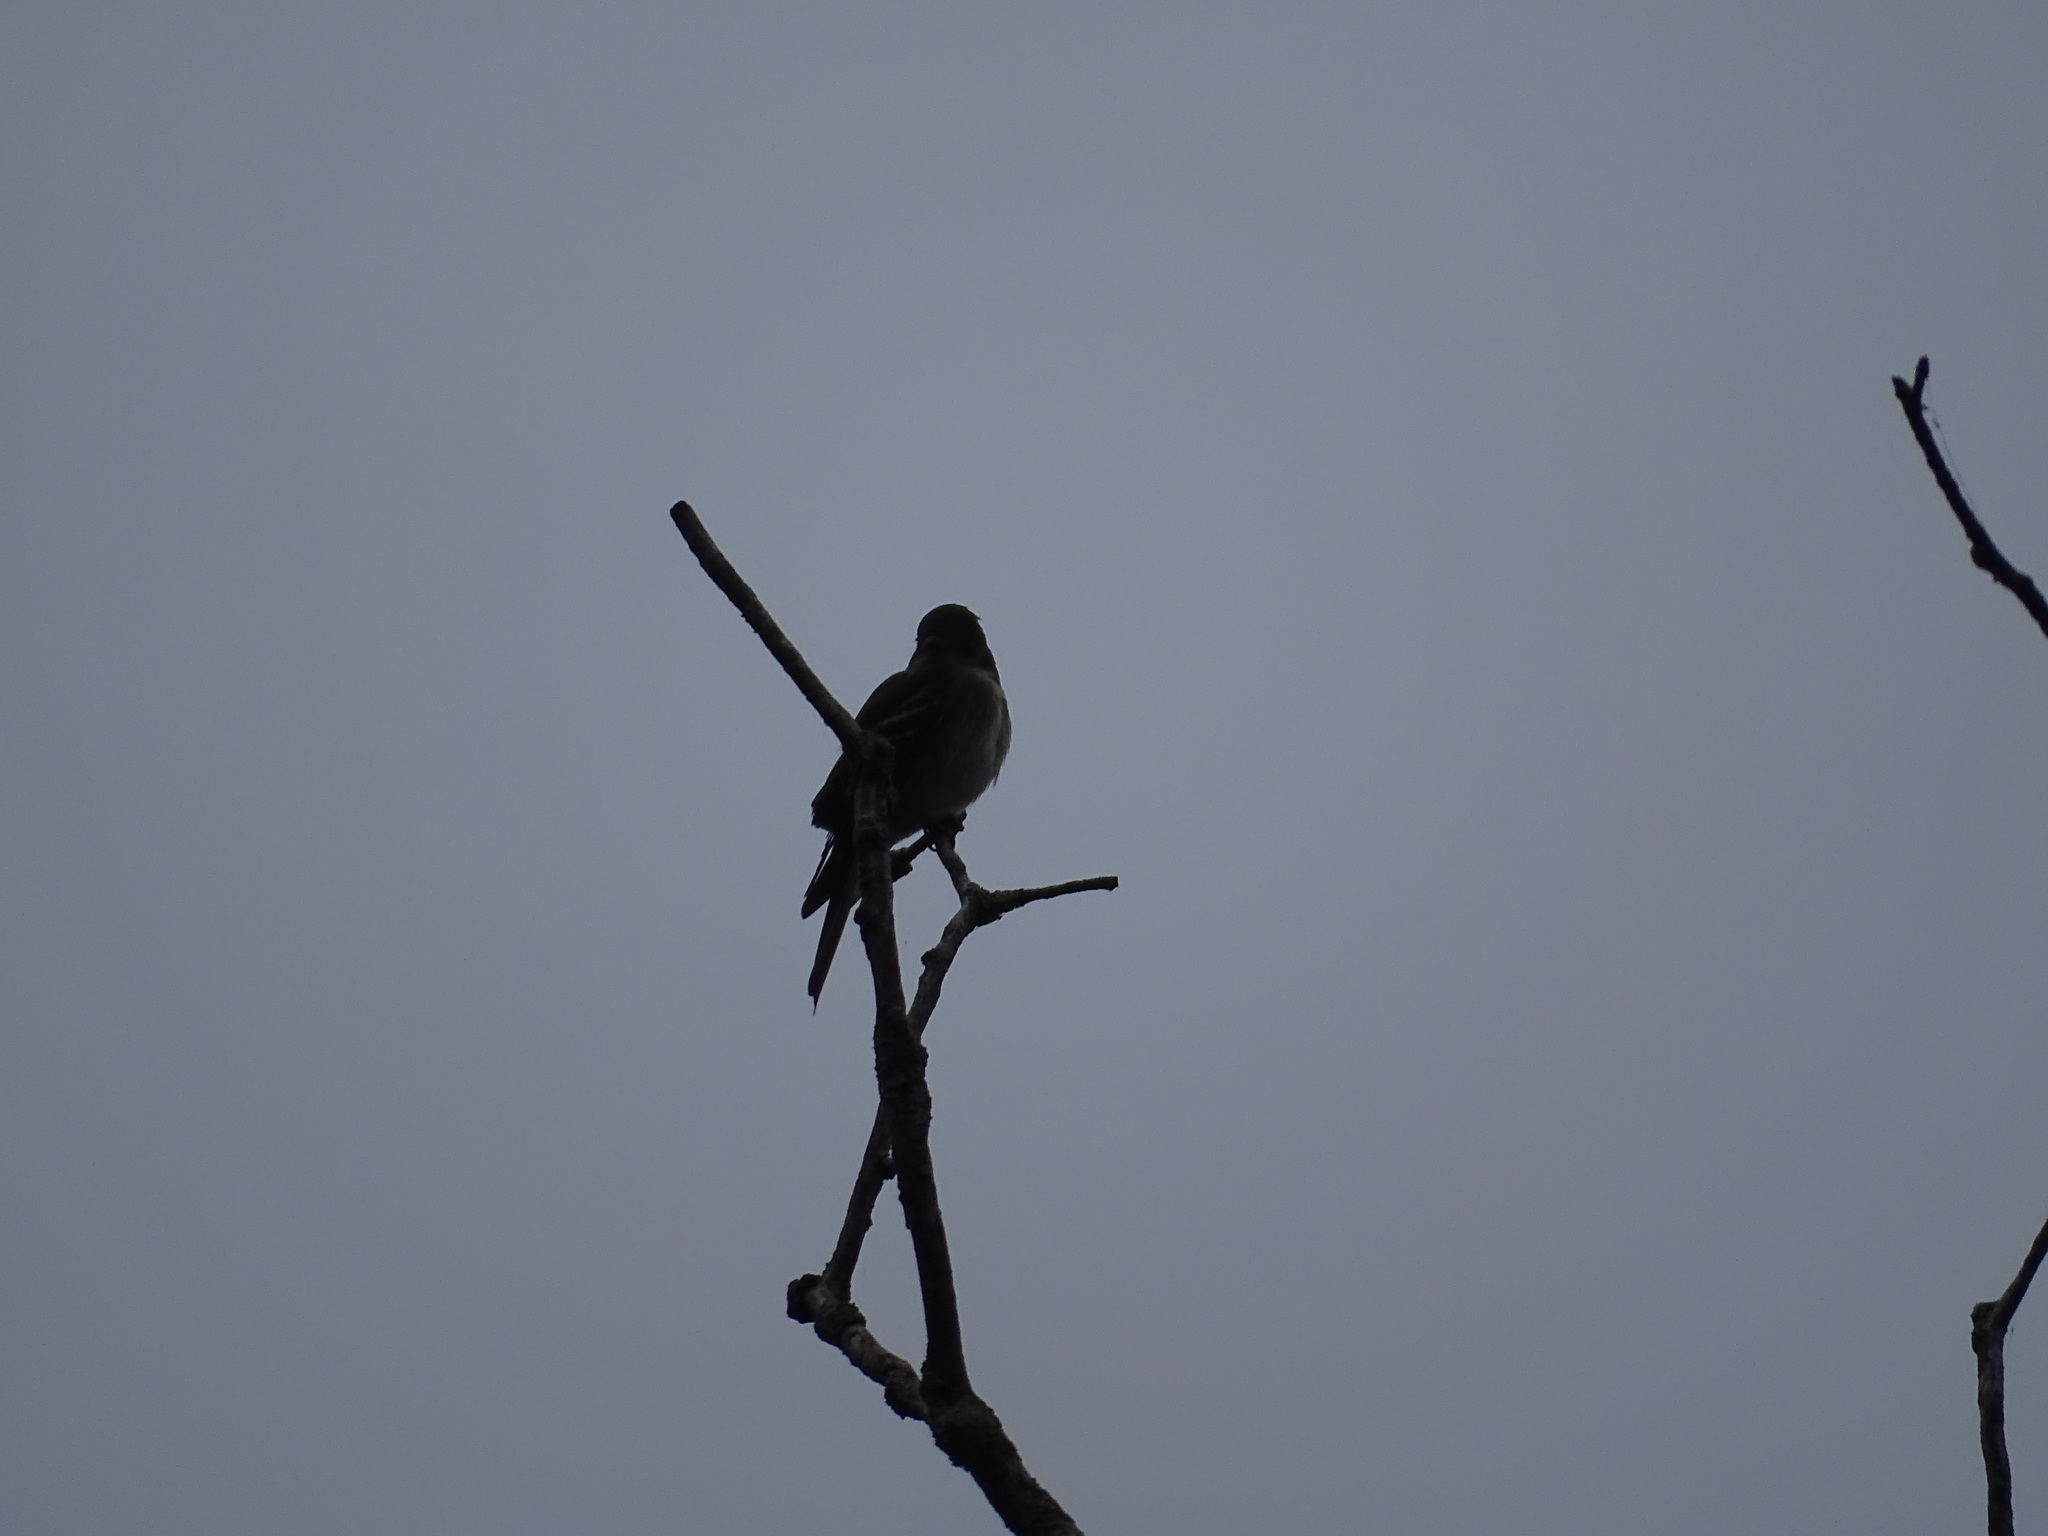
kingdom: Animalia
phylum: Chordata
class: Aves
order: Passeriformes
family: Tyrannidae
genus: Contopus
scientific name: Contopus virens
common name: Eastern wood-pewee
